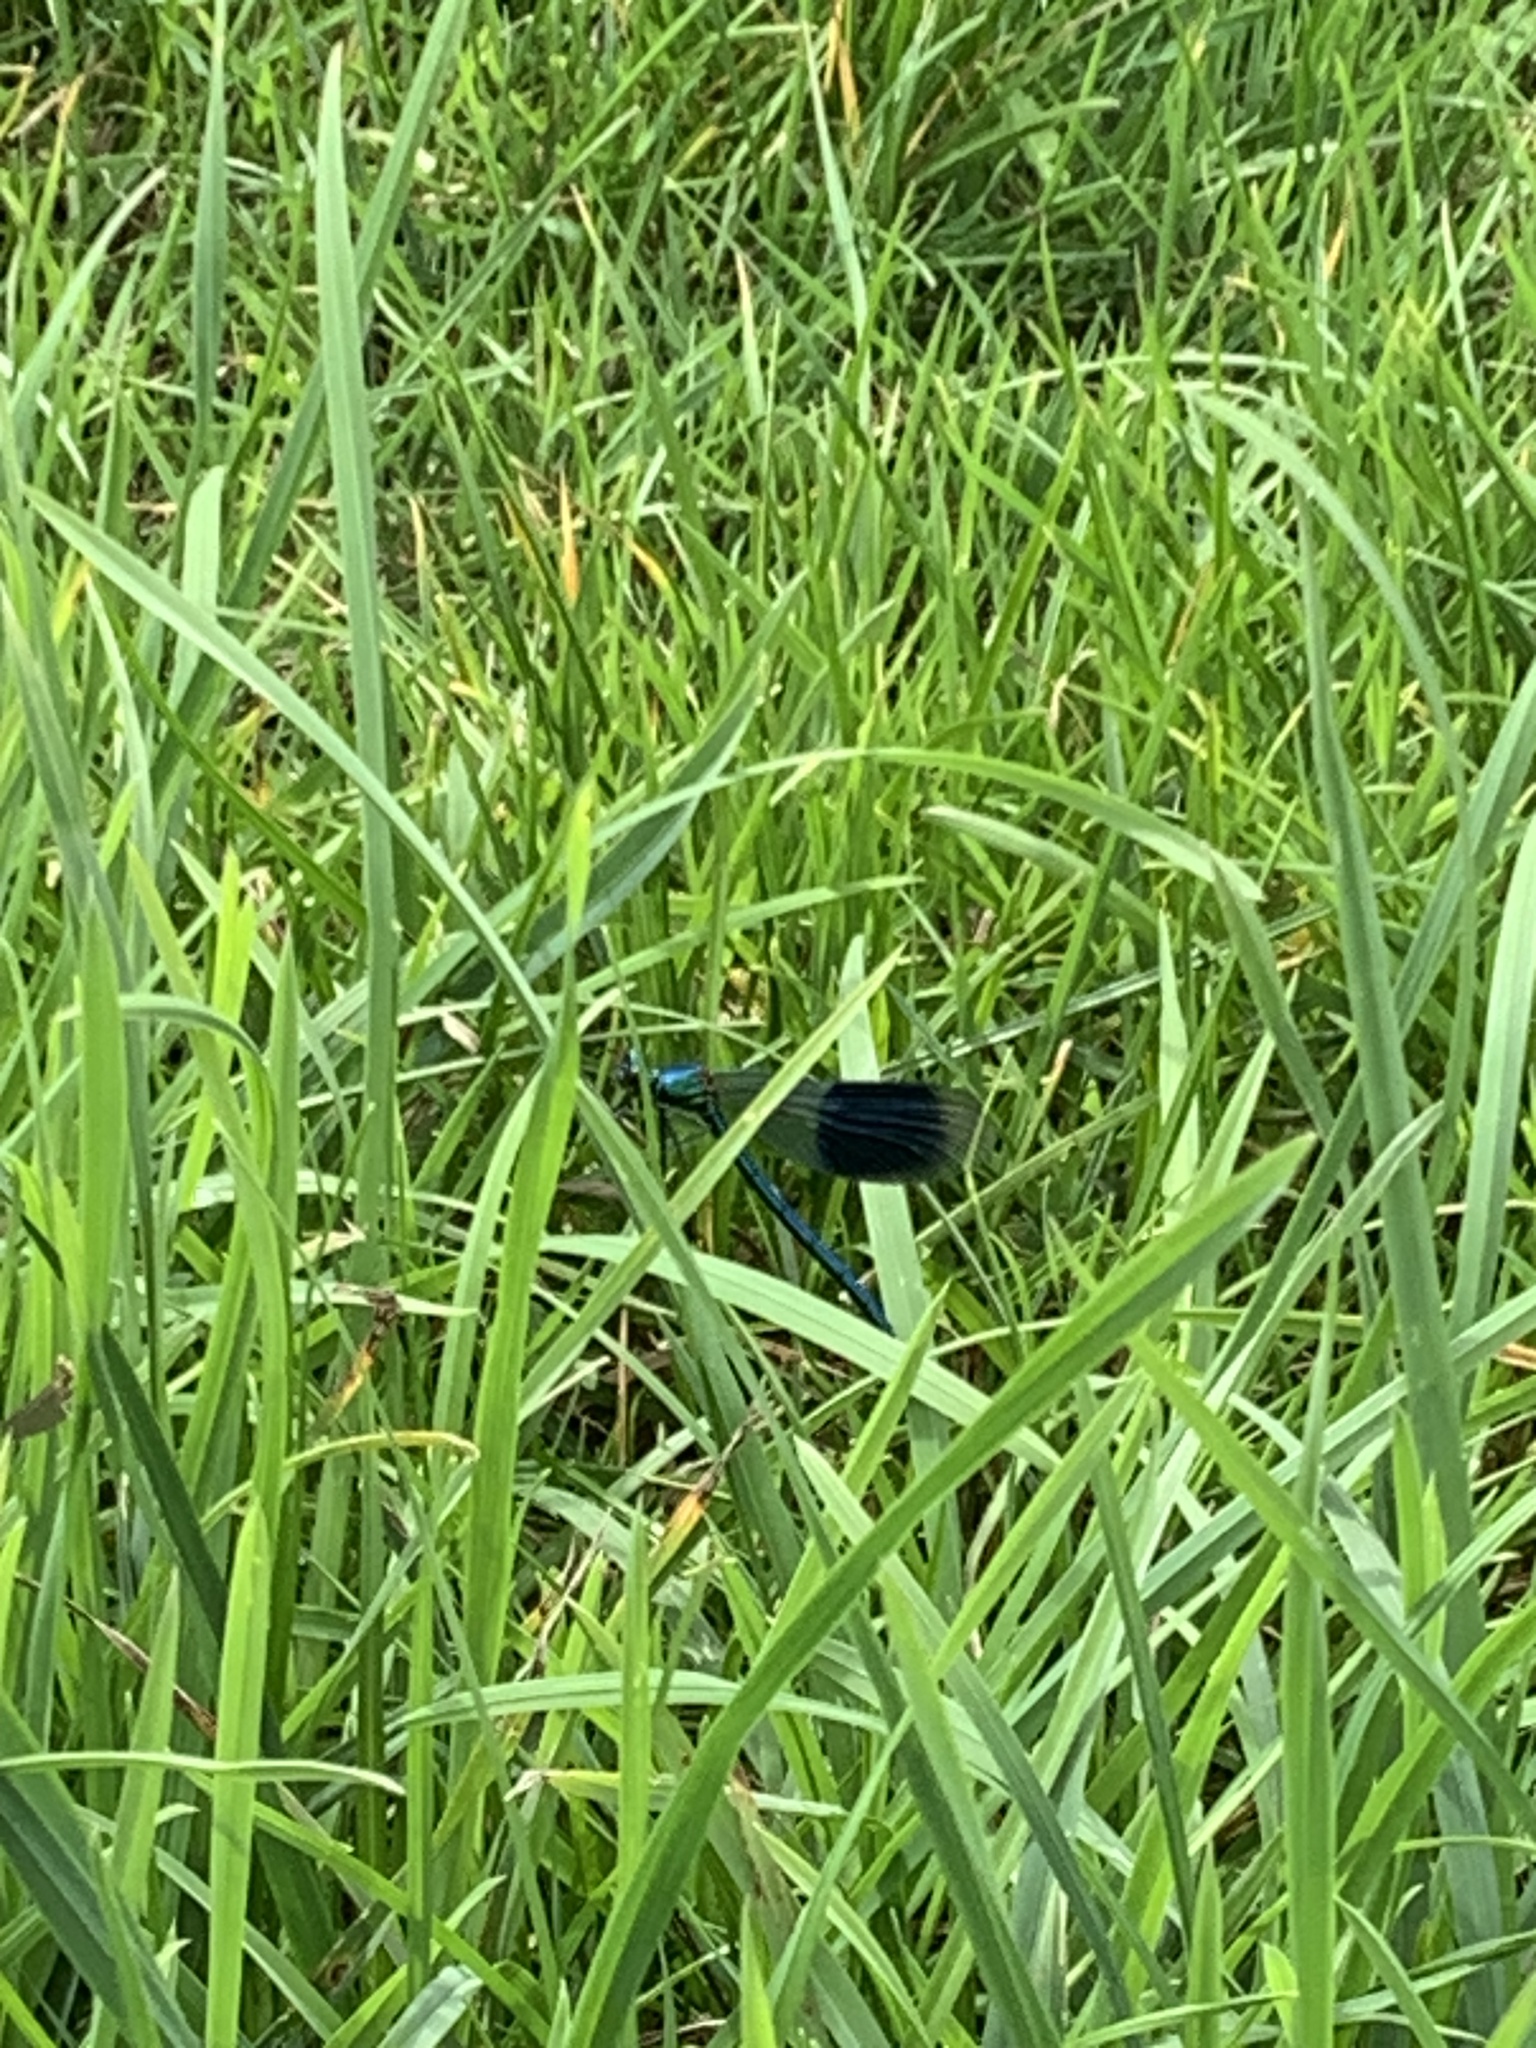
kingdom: Animalia
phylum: Arthropoda
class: Insecta
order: Odonata
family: Calopterygidae
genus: Calopteryx
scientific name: Calopteryx splendens
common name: Banded demoiselle
